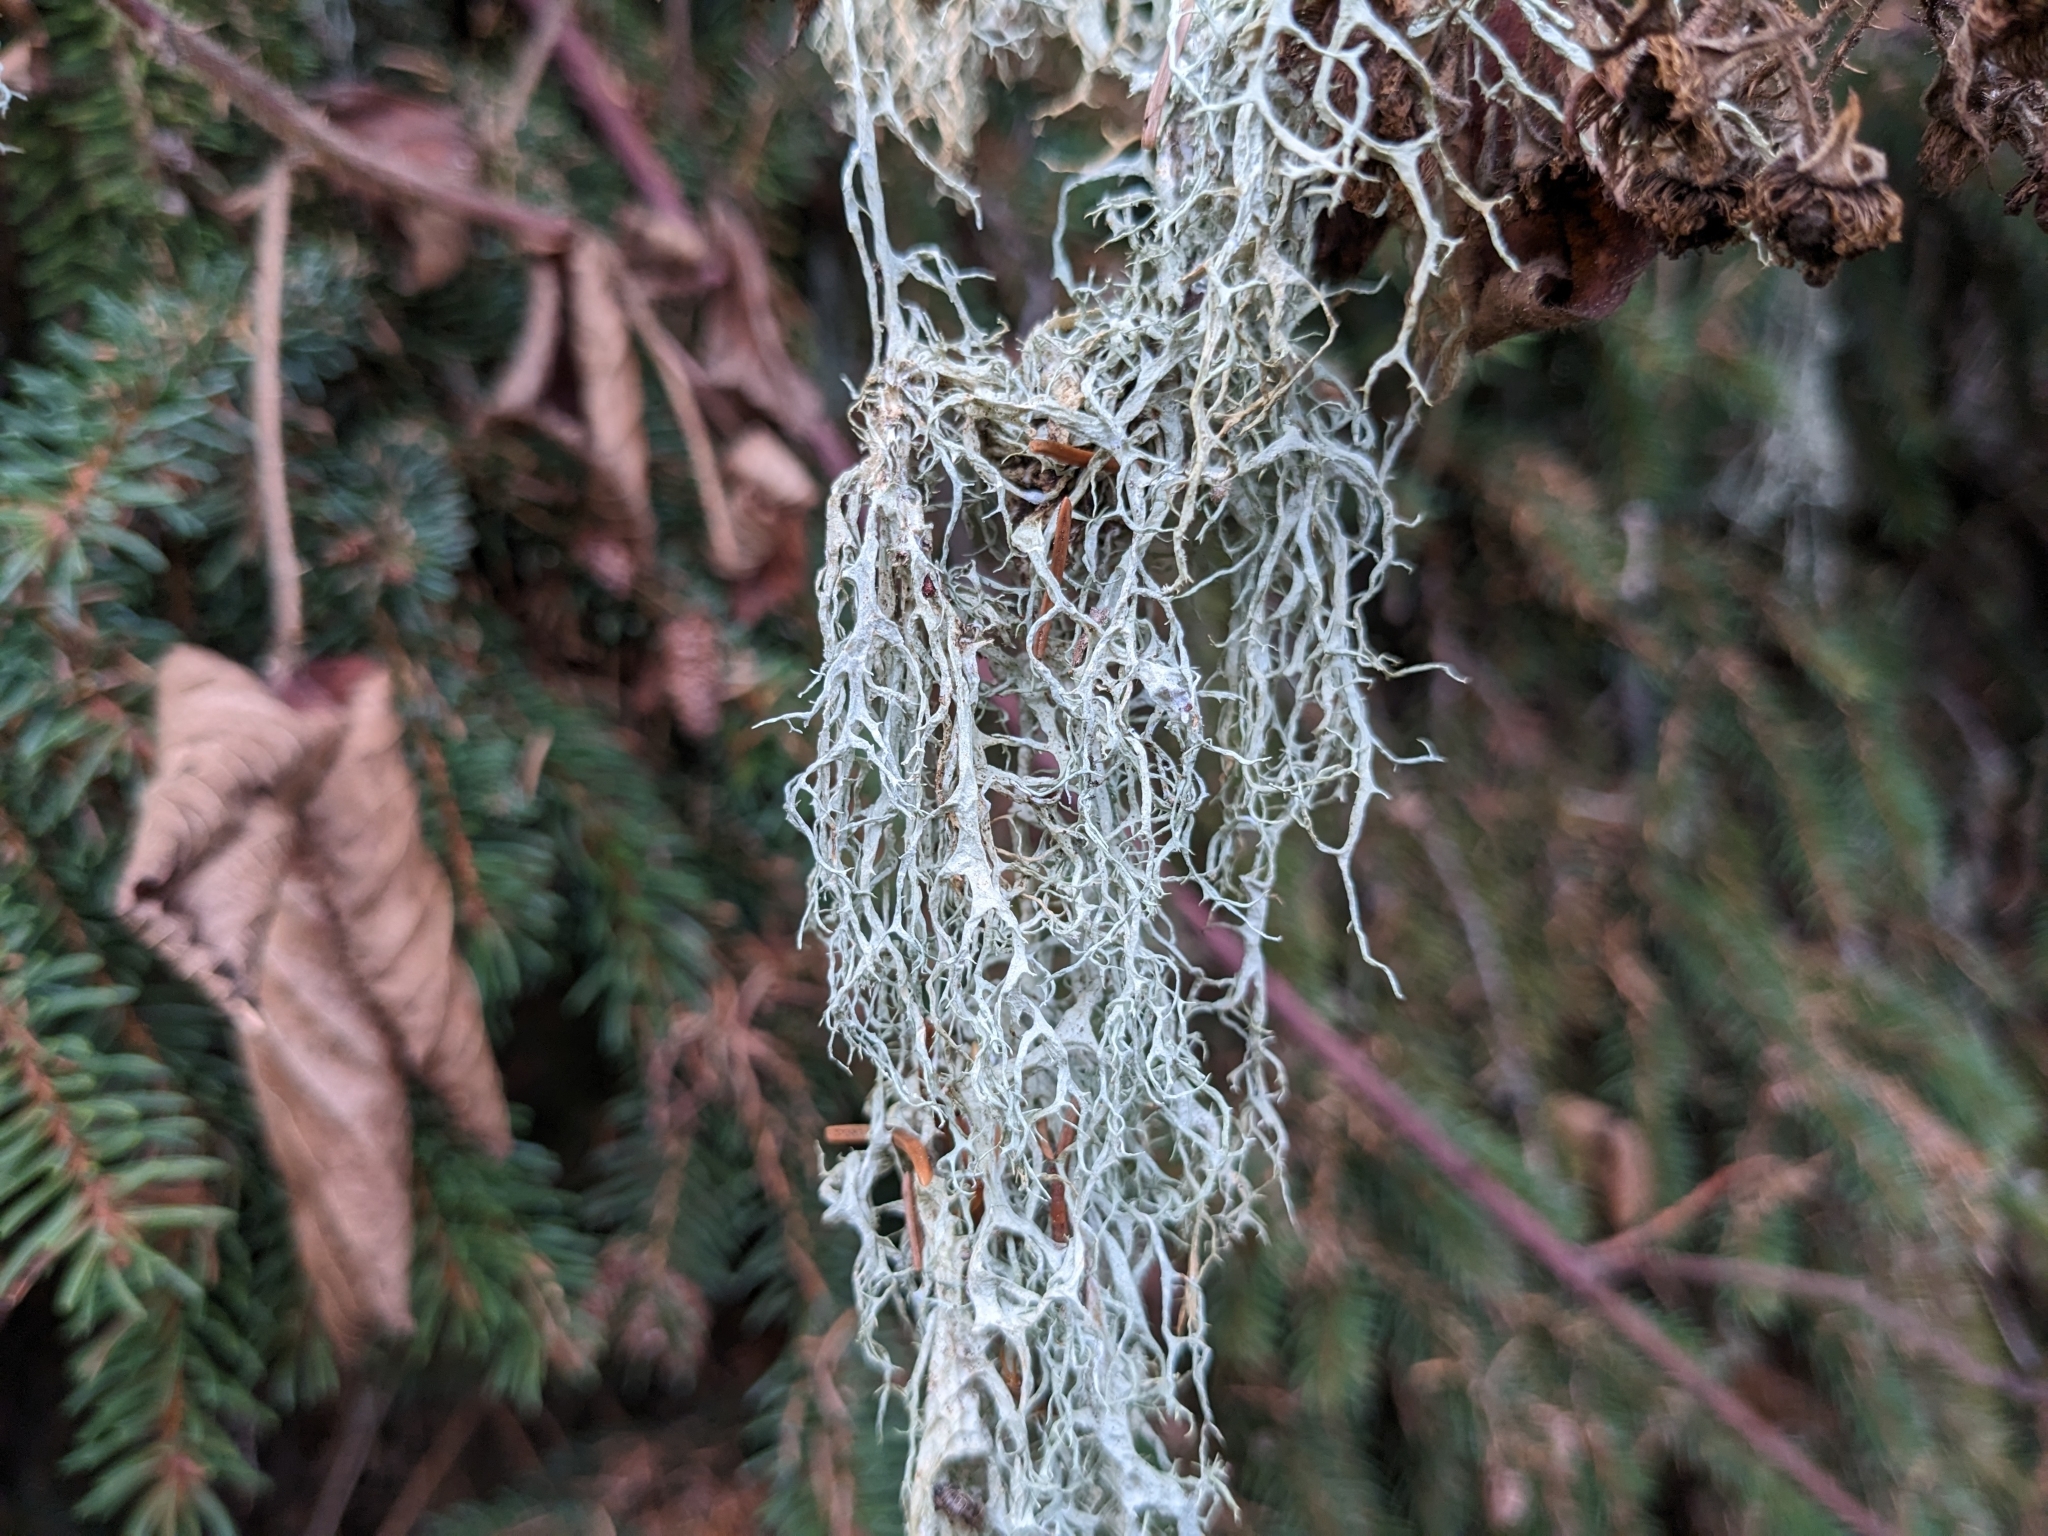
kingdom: Fungi
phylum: Ascomycota
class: Lecanoromycetes
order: Lecanorales
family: Parmeliaceae
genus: Evernia
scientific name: Evernia divaricata
